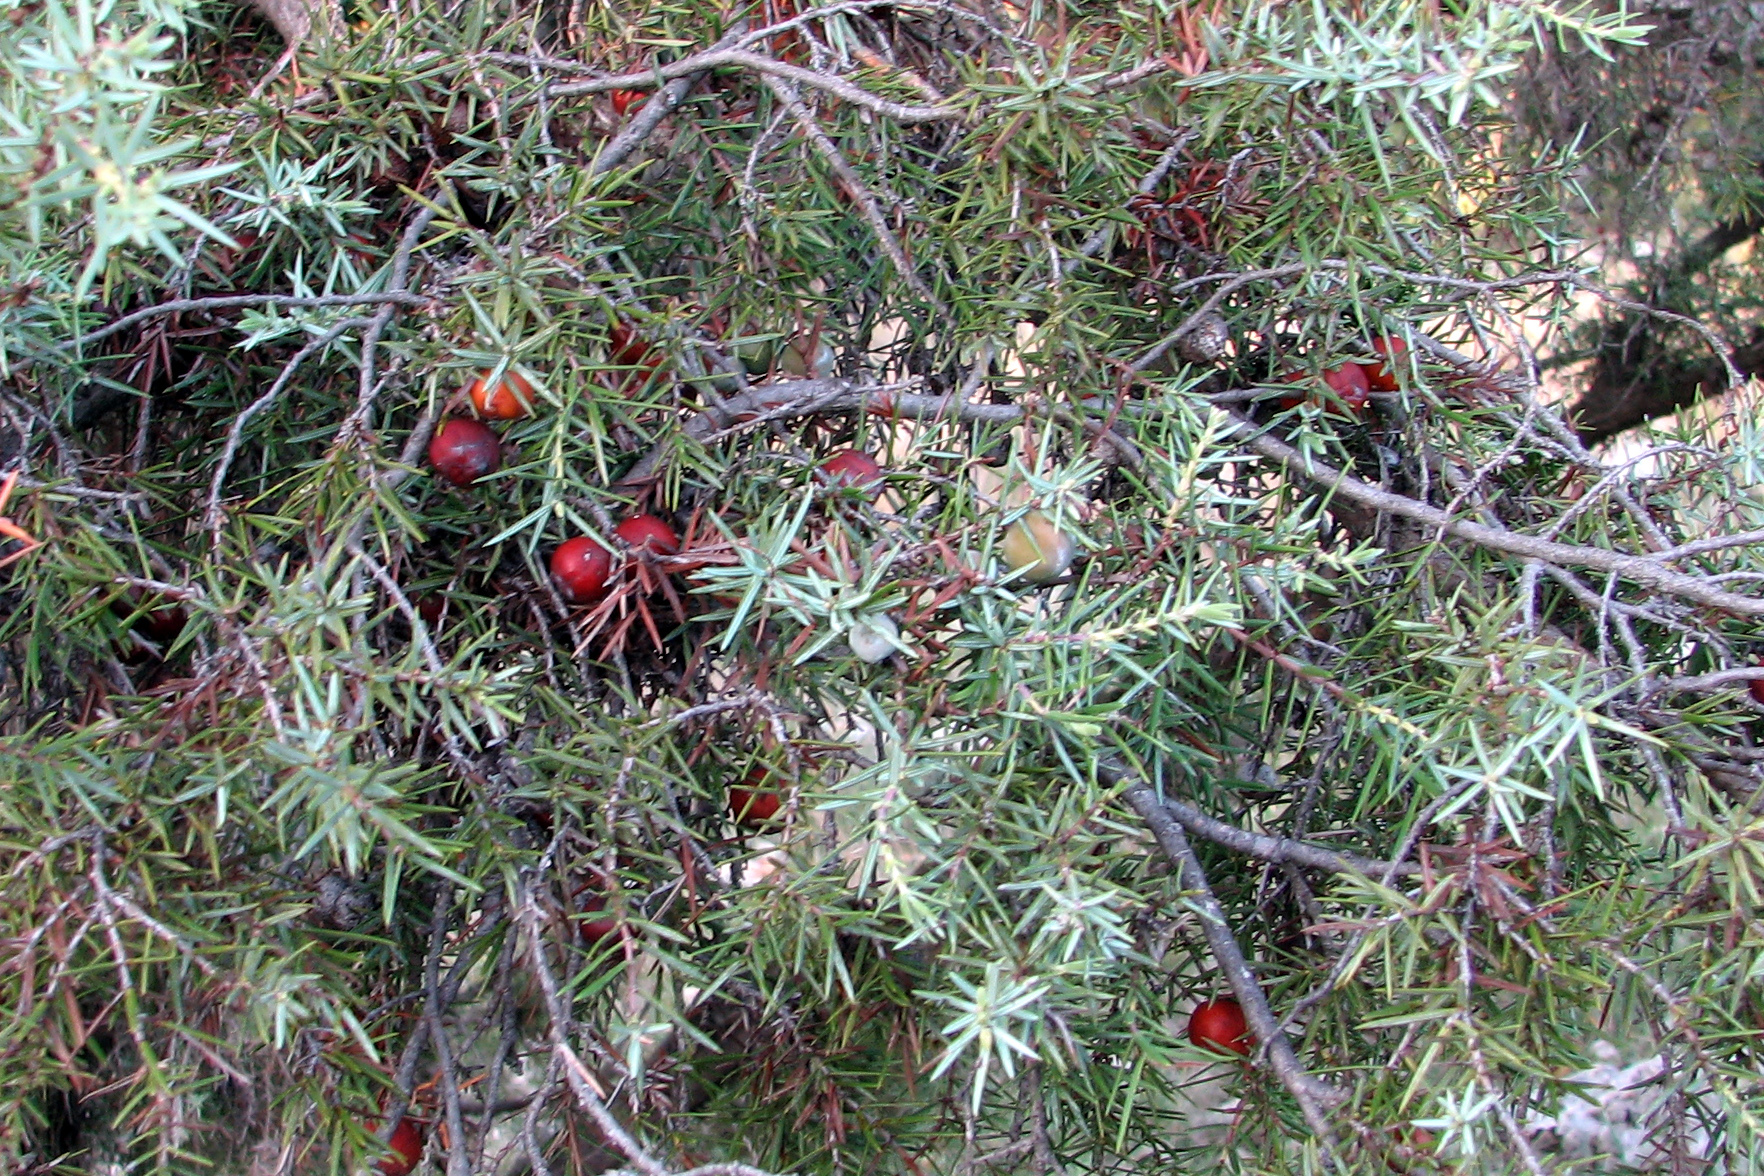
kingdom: Plantae
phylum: Tracheophyta
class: Pinopsida
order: Pinales
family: Cupressaceae
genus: Juniperus
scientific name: Juniperus oxycedrus
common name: Prickly juniper
